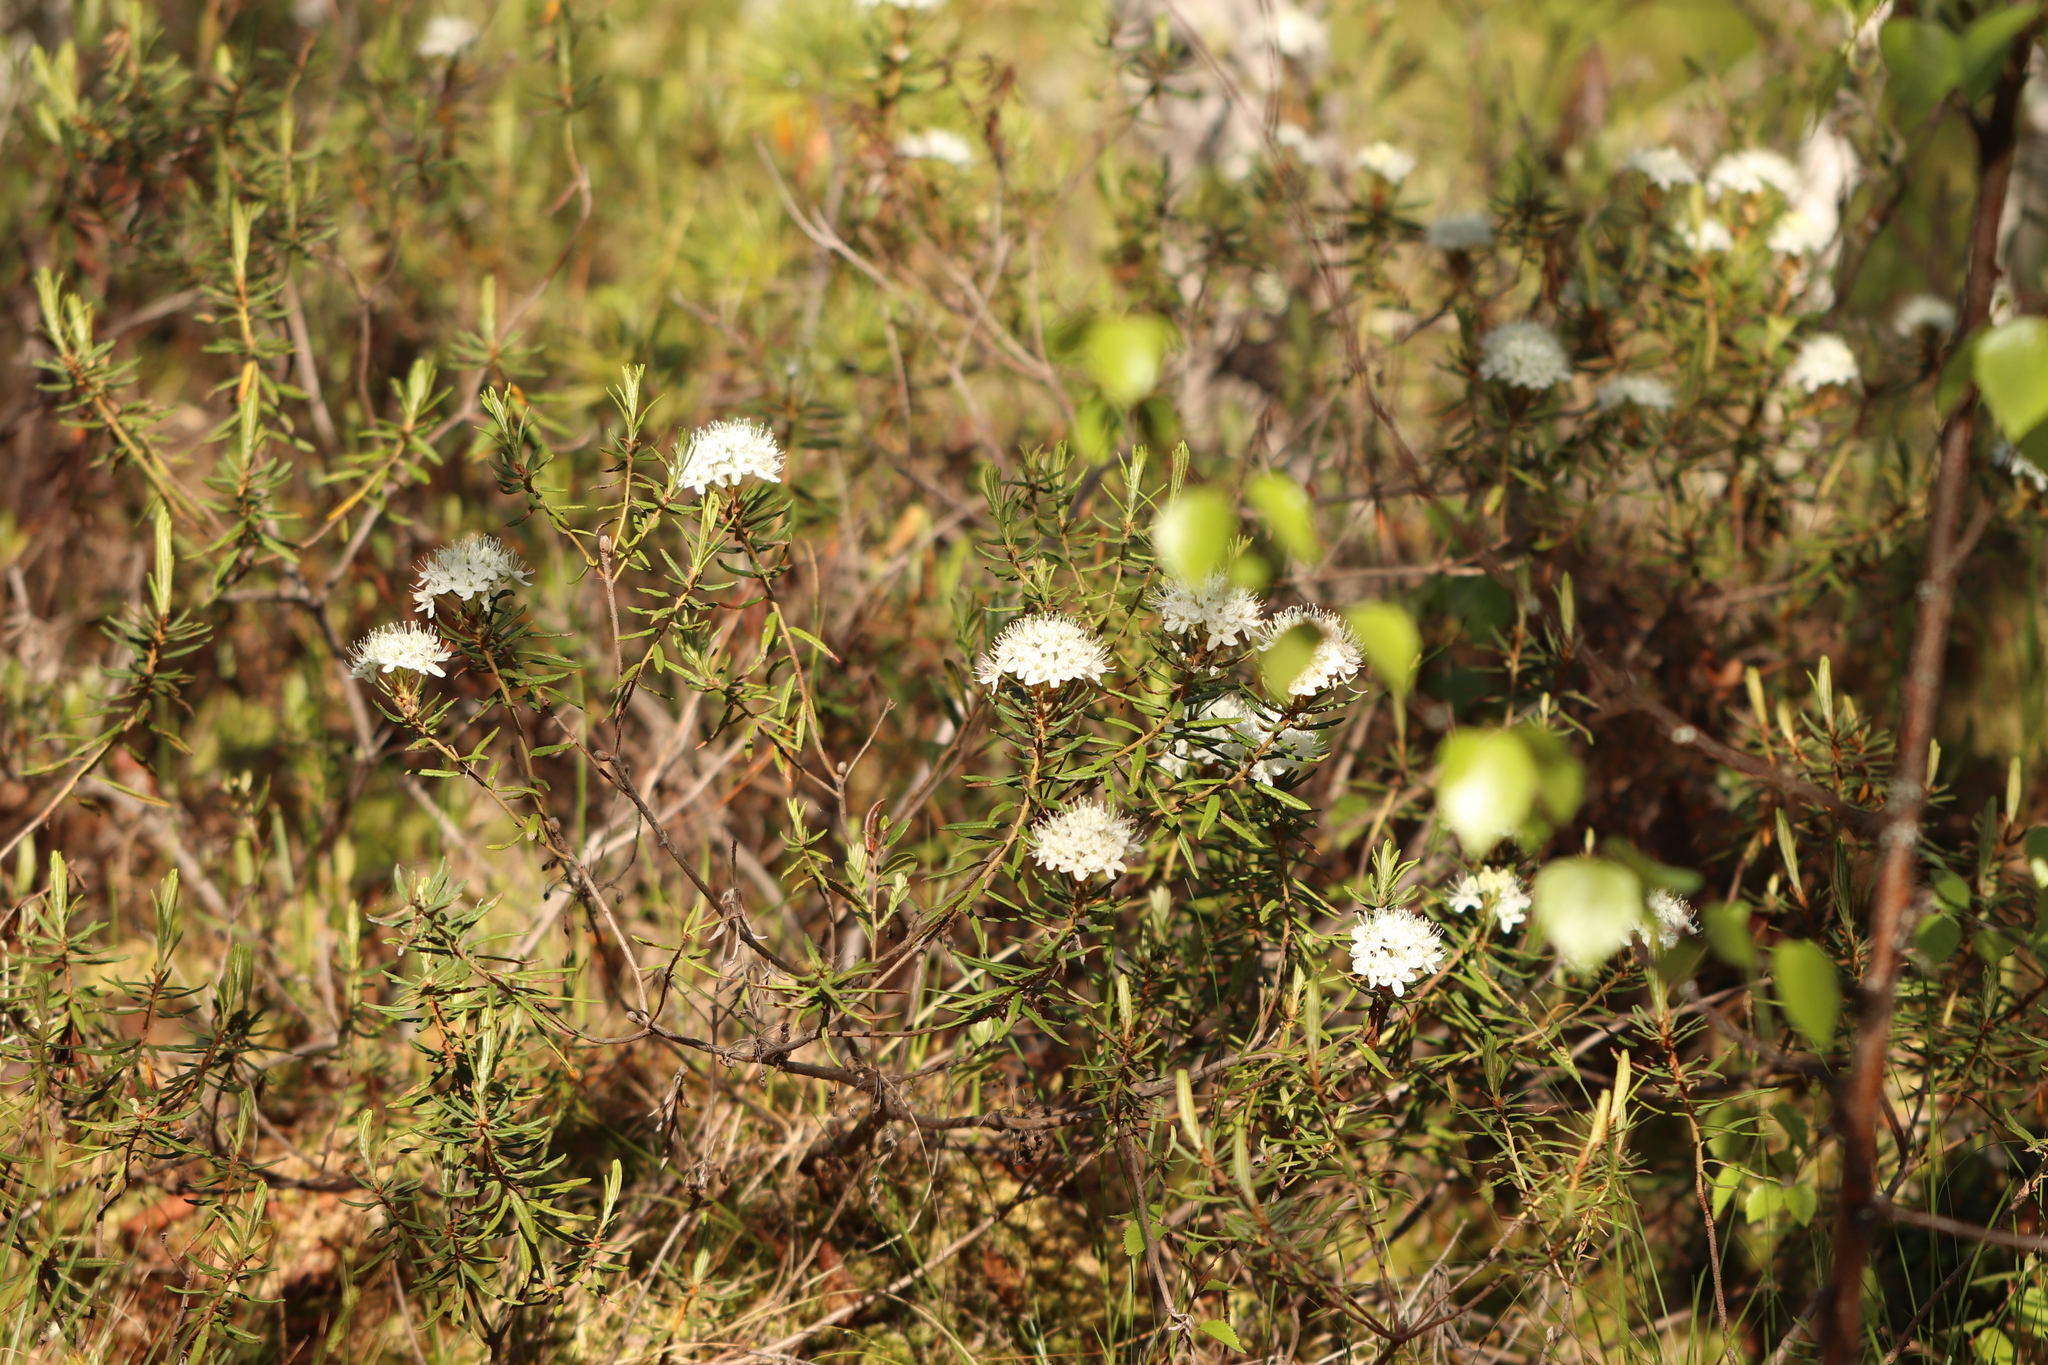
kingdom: Plantae
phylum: Tracheophyta
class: Magnoliopsida
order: Ericales
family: Ericaceae
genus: Rhododendron
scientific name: Rhododendron tomentosum
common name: Marsh labrador tea
